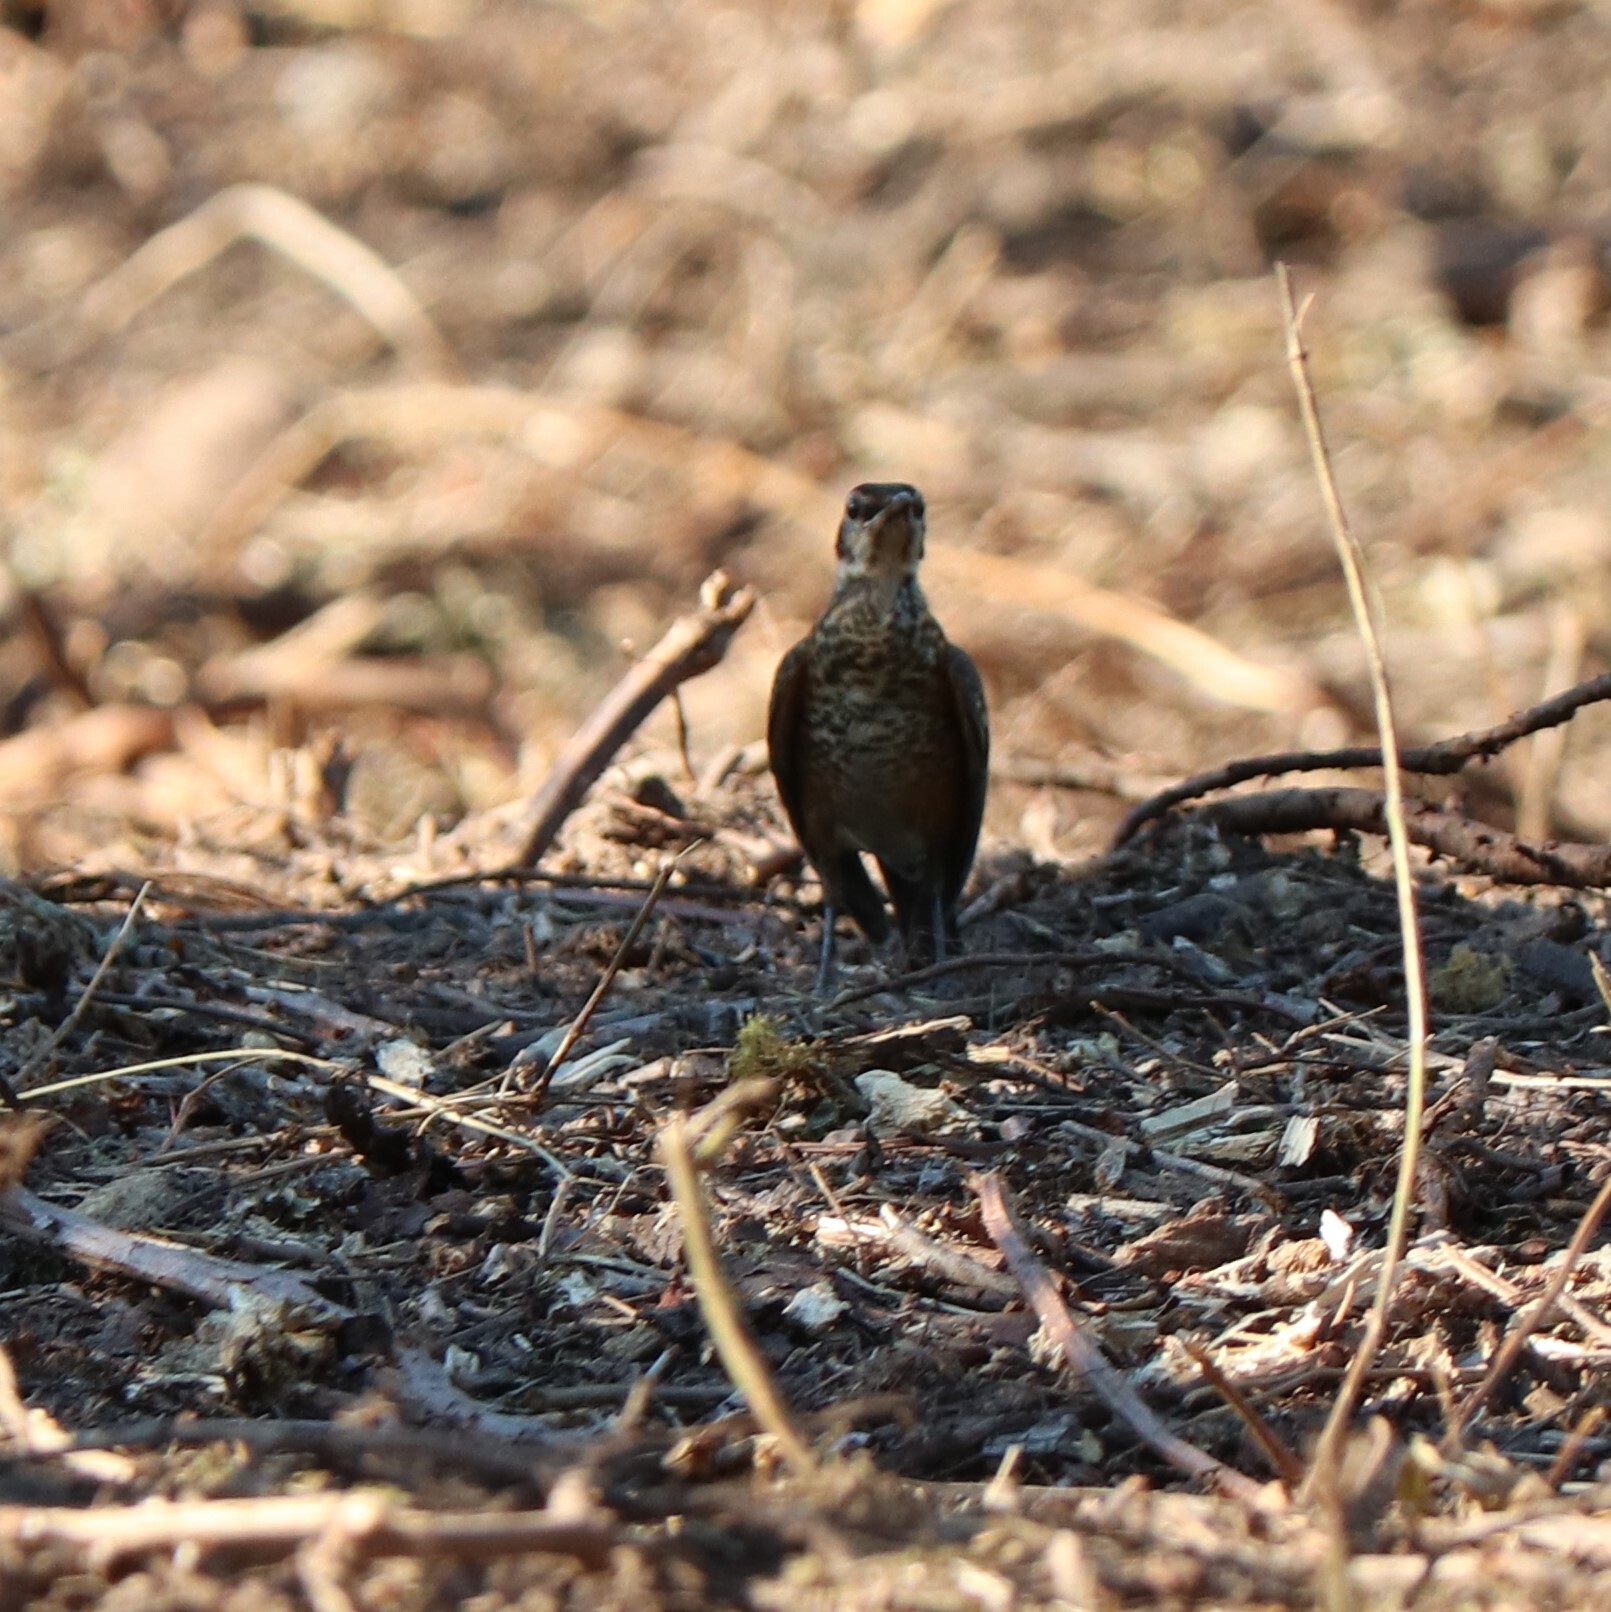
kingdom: Animalia
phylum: Chordata
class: Aves
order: Passeriformes
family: Turdidae
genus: Turdus
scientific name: Turdus migratorius
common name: American robin
